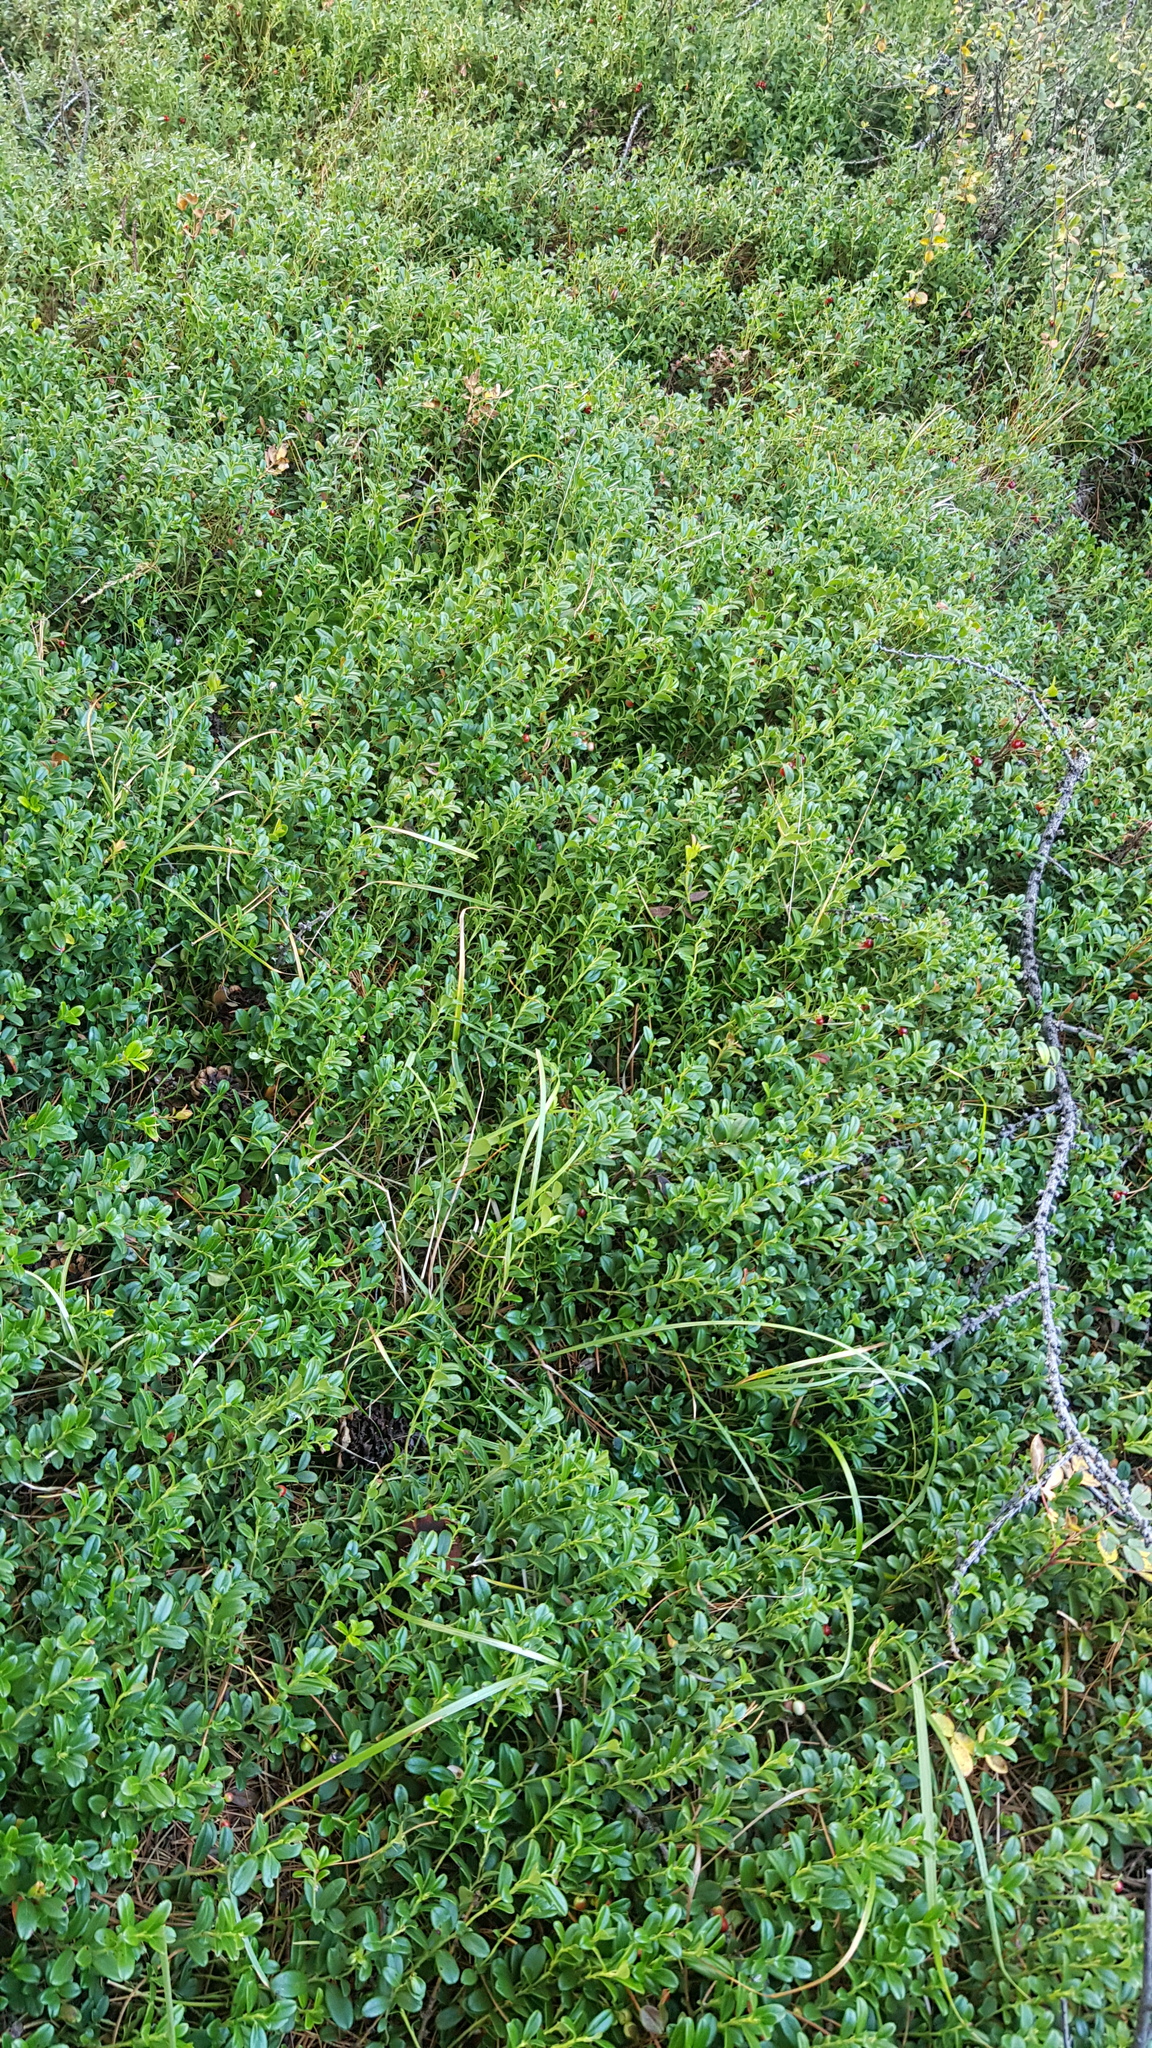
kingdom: Plantae
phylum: Tracheophyta
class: Magnoliopsida
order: Ericales
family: Ericaceae
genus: Vaccinium
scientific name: Vaccinium vitis-idaea
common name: Cowberry
